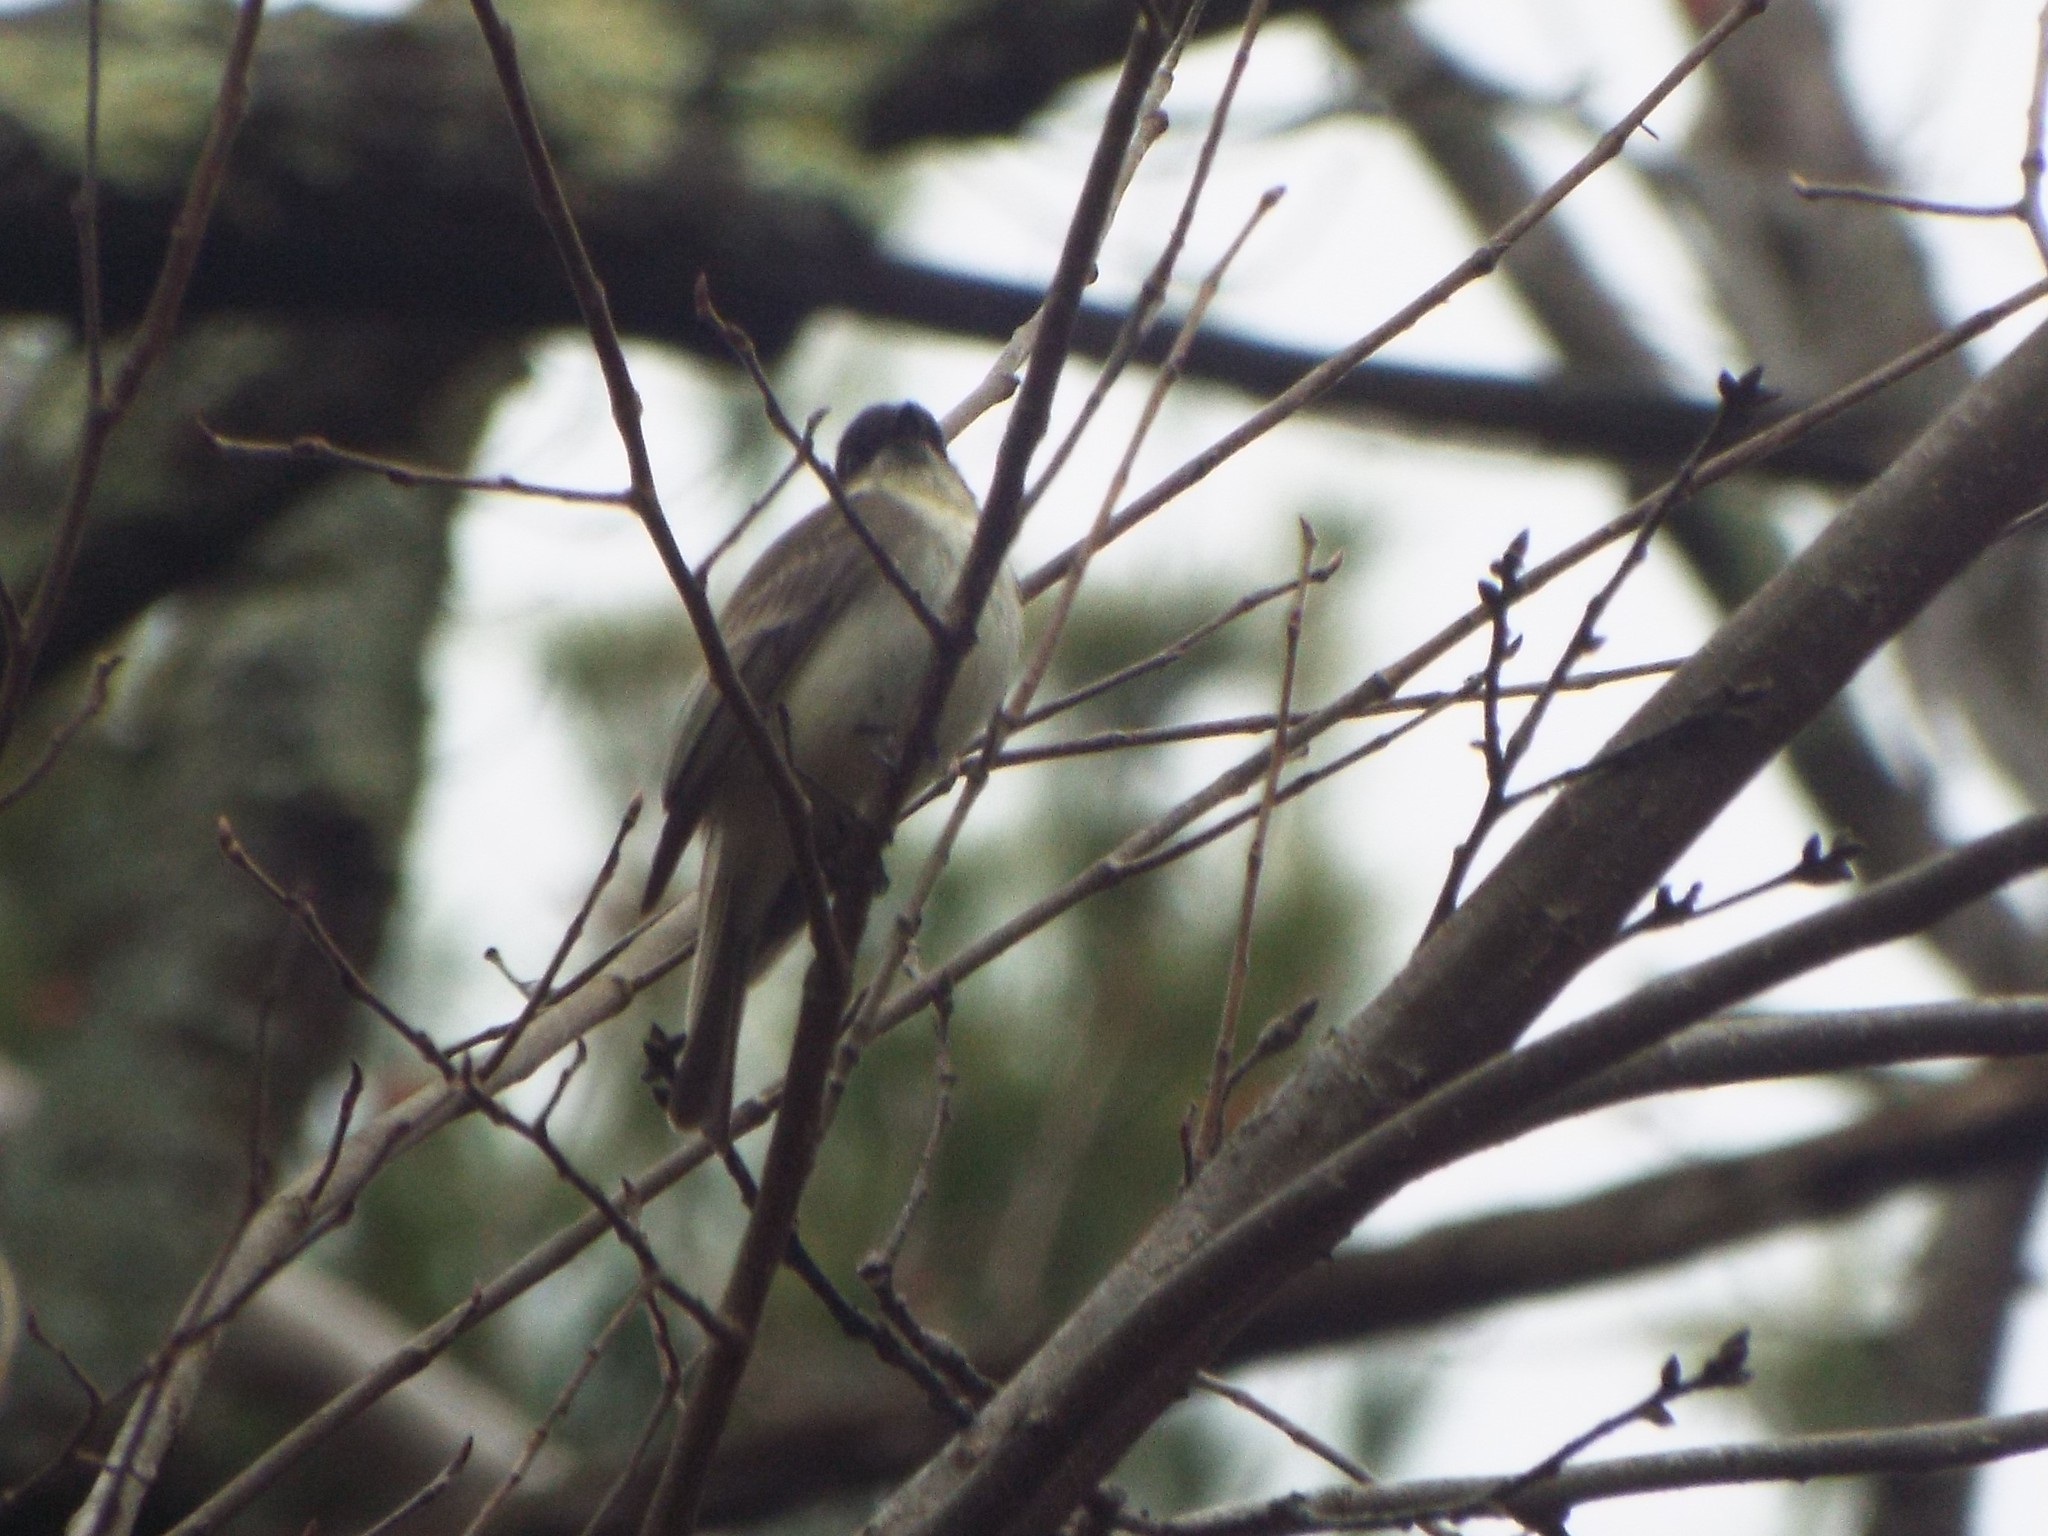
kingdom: Animalia
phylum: Chordata
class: Aves
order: Passeriformes
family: Tyrannidae
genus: Sayornis
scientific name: Sayornis phoebe
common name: Eastern phoebe
